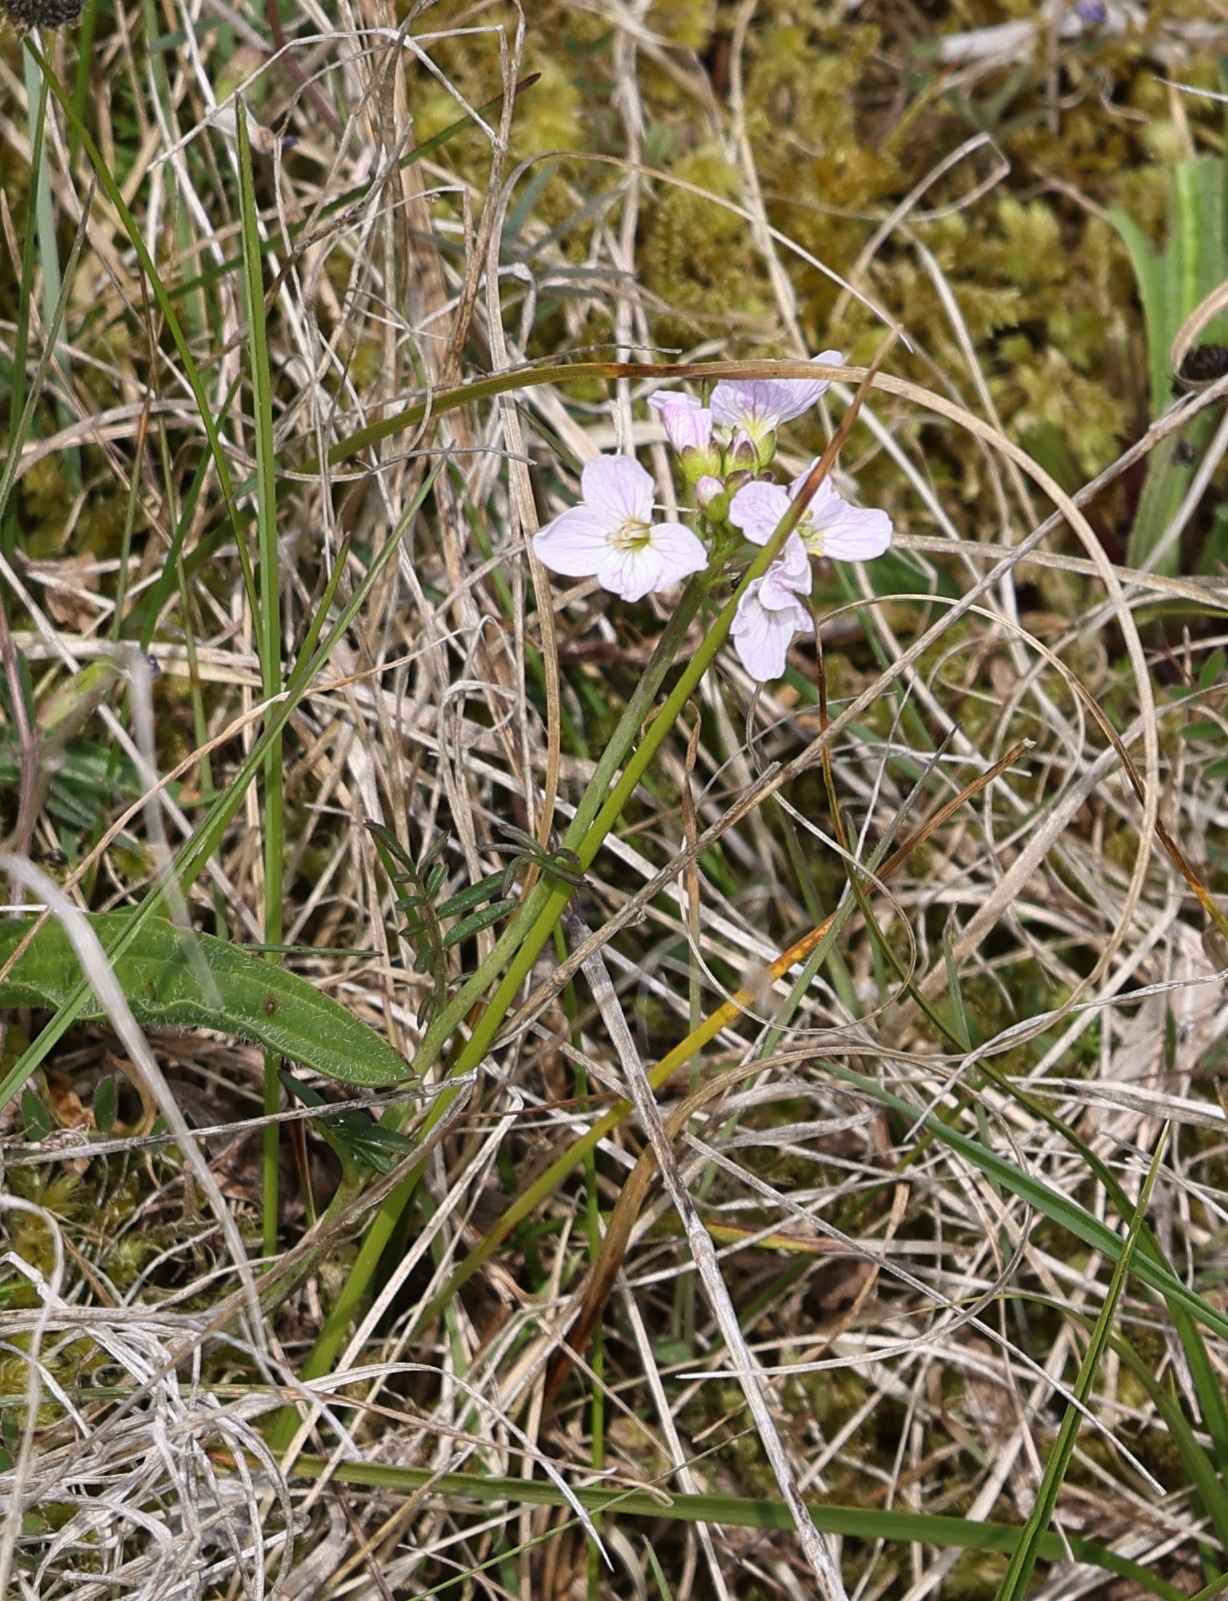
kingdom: Plantae
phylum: Tracheophyta
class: Magnoliopsida
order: Brassicales
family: Brassicaceae
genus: Cardamine
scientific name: Cardamine pratensis
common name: Cuckoo flower
